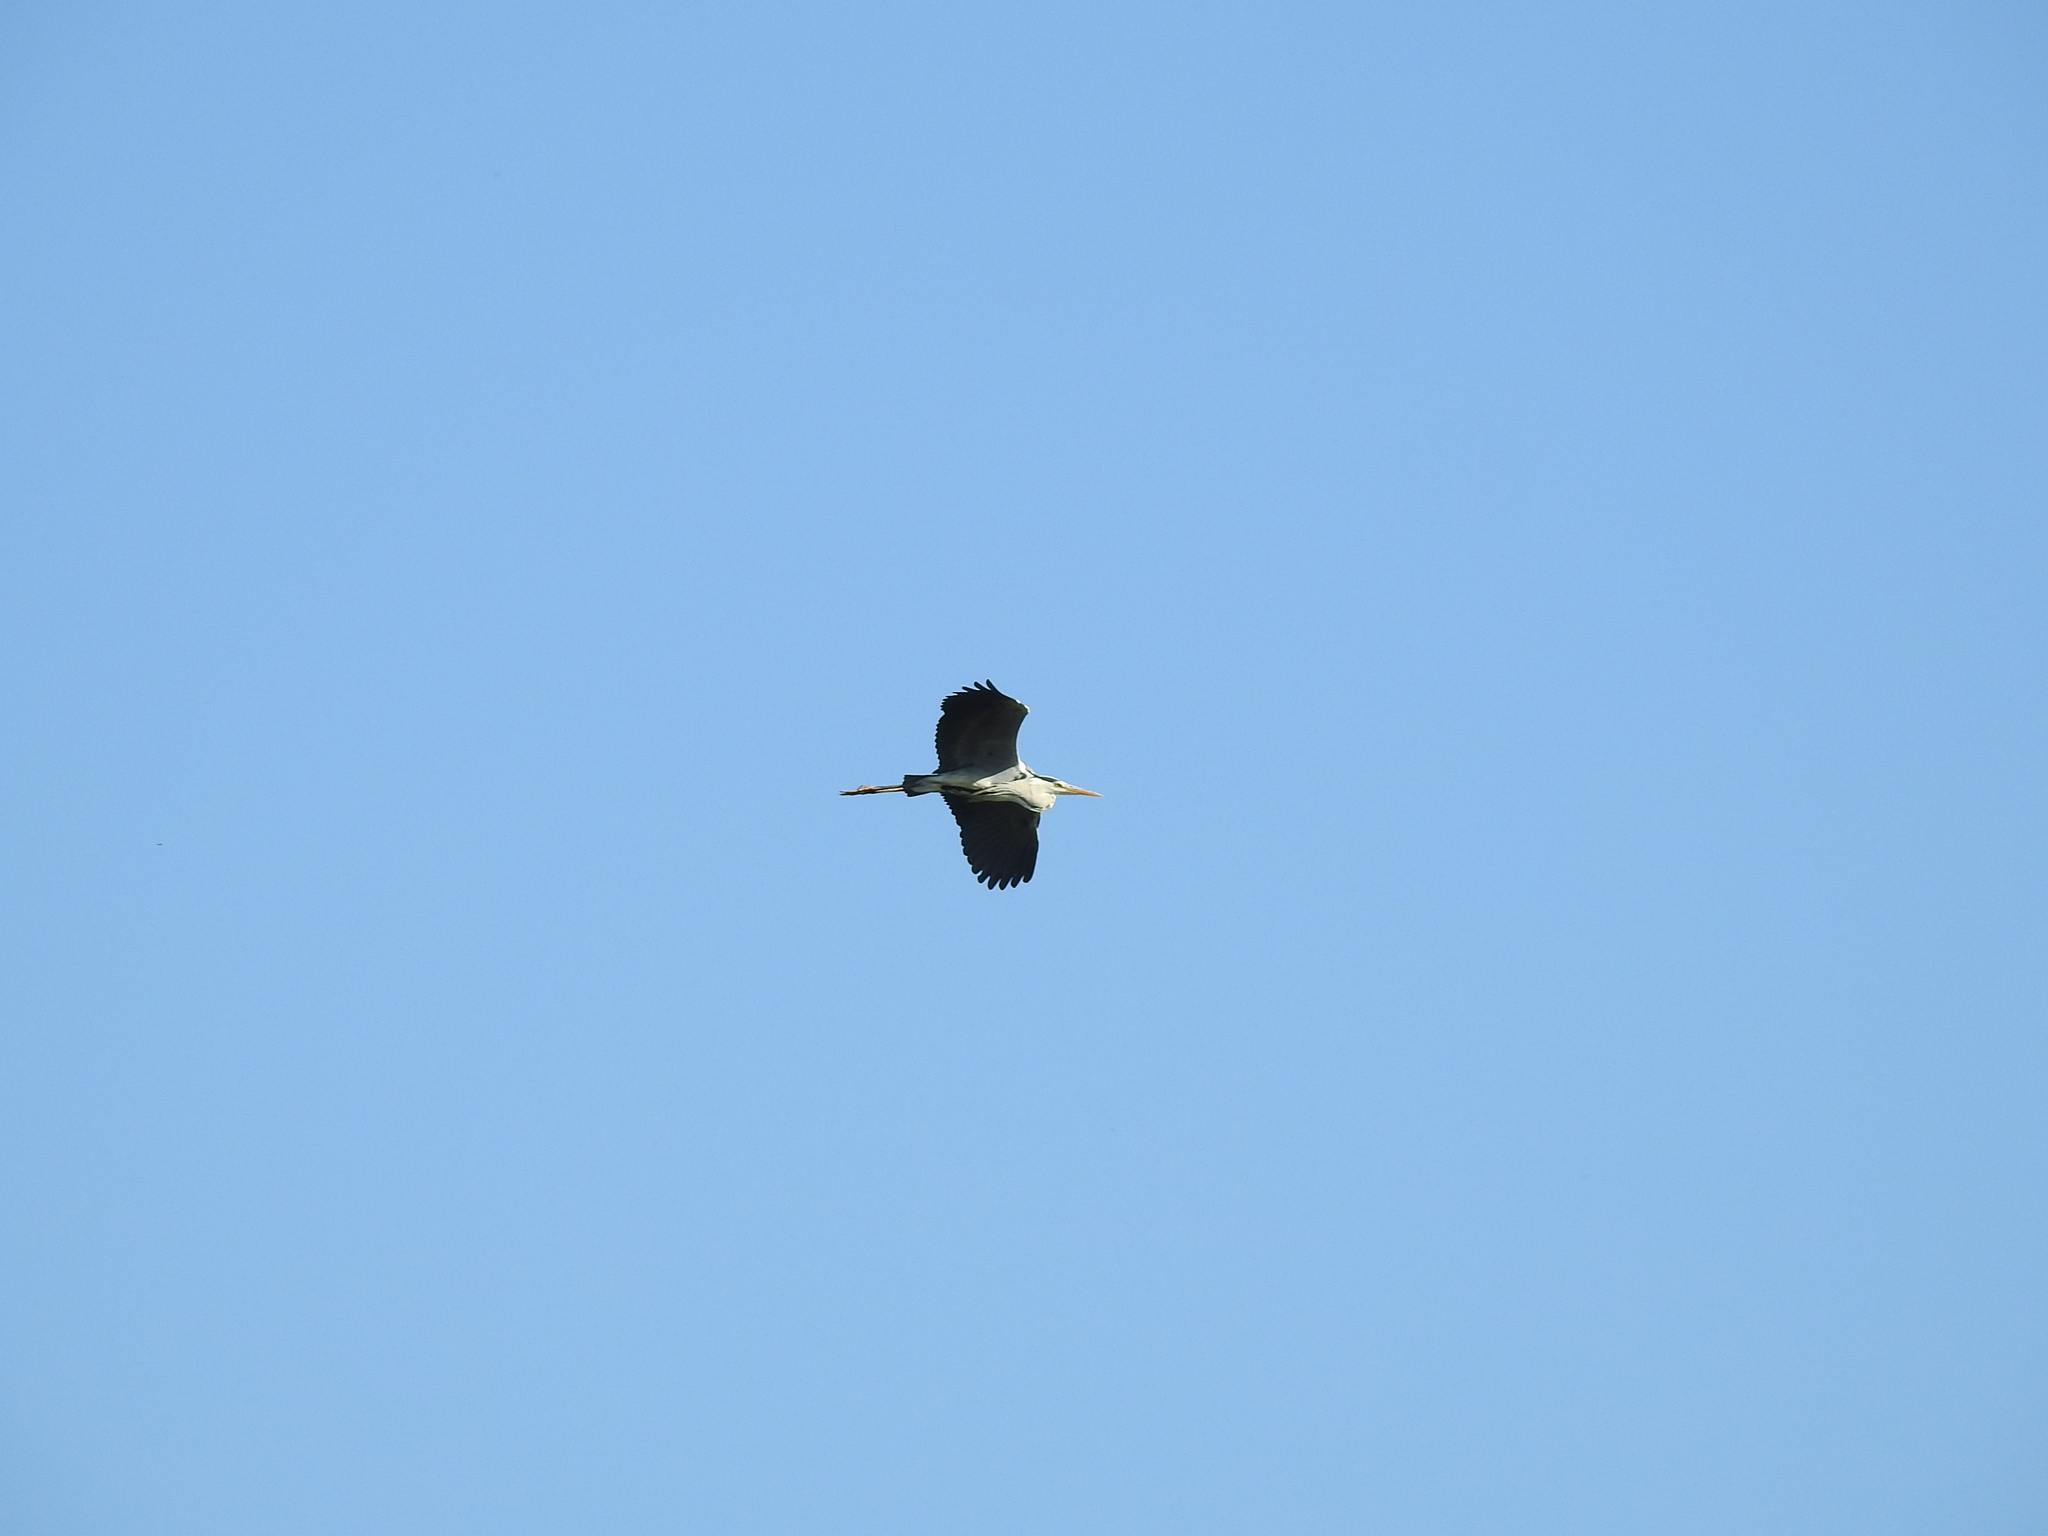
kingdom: Animalia
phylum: Chordata
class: Aves
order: Pelecaniformes
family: Ardeidae
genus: Ardea
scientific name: Ardea cinerea
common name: Grey heron
